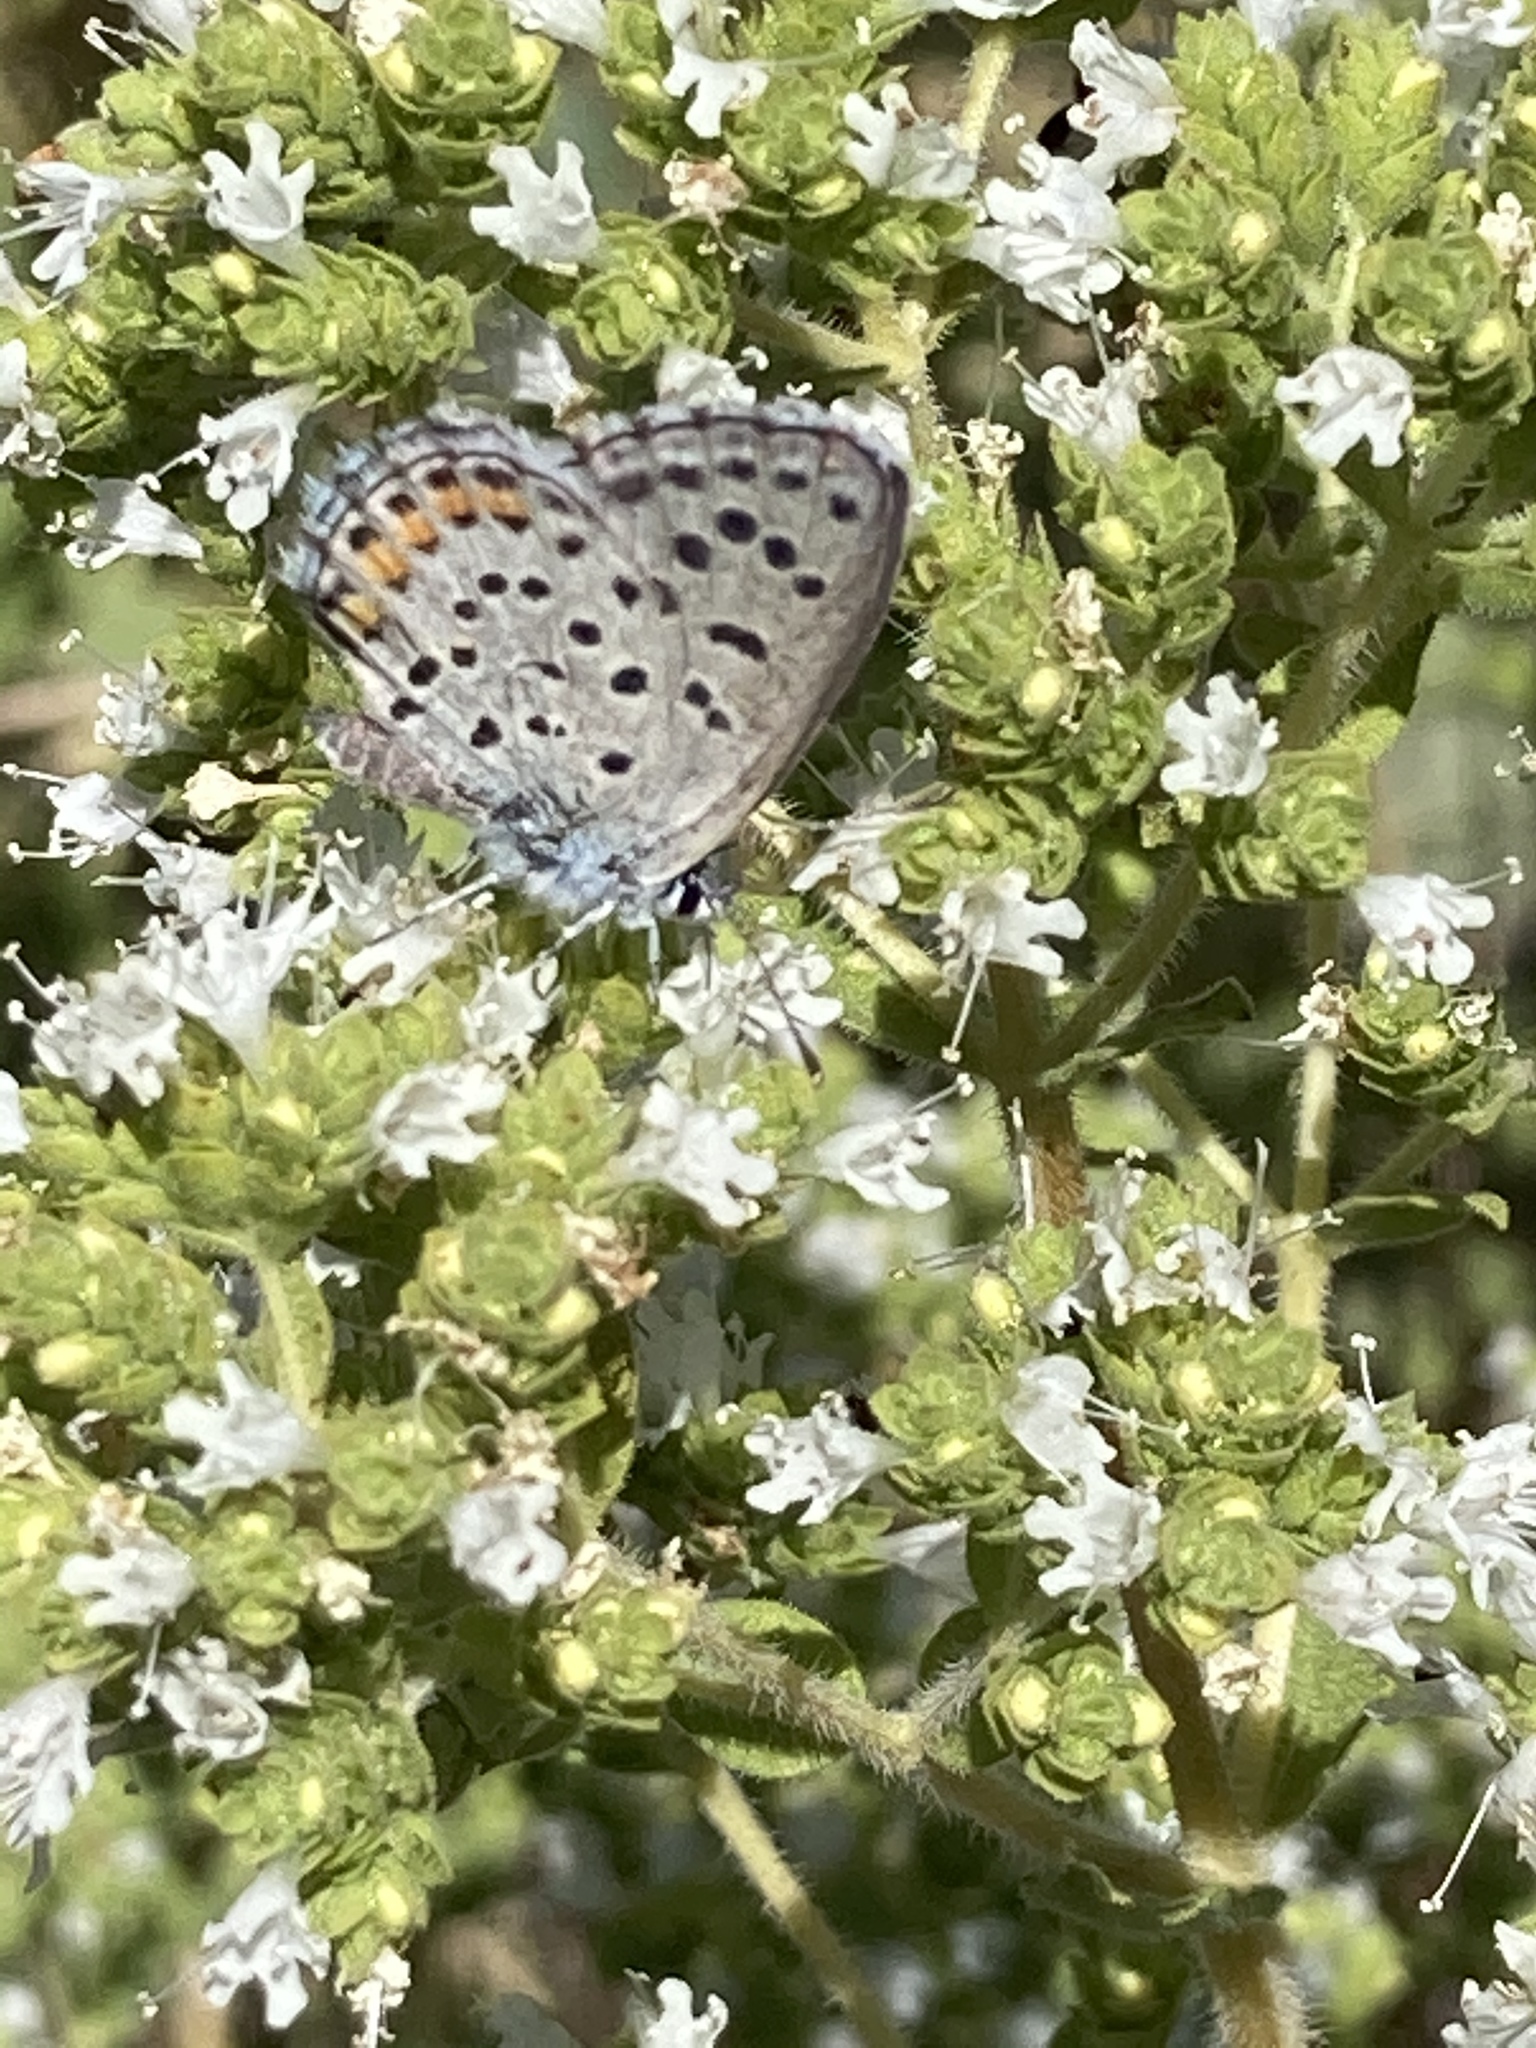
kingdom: Animalia
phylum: Arthropoda
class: Insecta
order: Lepidoptera
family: Lycaenidae
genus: Pseudophilotes
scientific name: Pseudophilotes baton
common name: Baton blue
